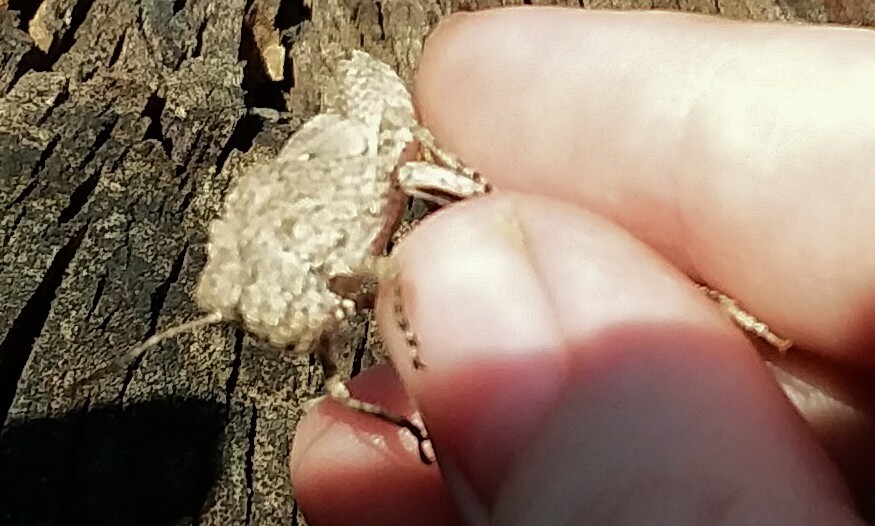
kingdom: Animalia
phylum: Arthropoda
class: Insecta
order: Orthoptera
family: Acrididae
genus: Dissosteira
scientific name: Dissosteira carolina
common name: Carolina grasshopper
